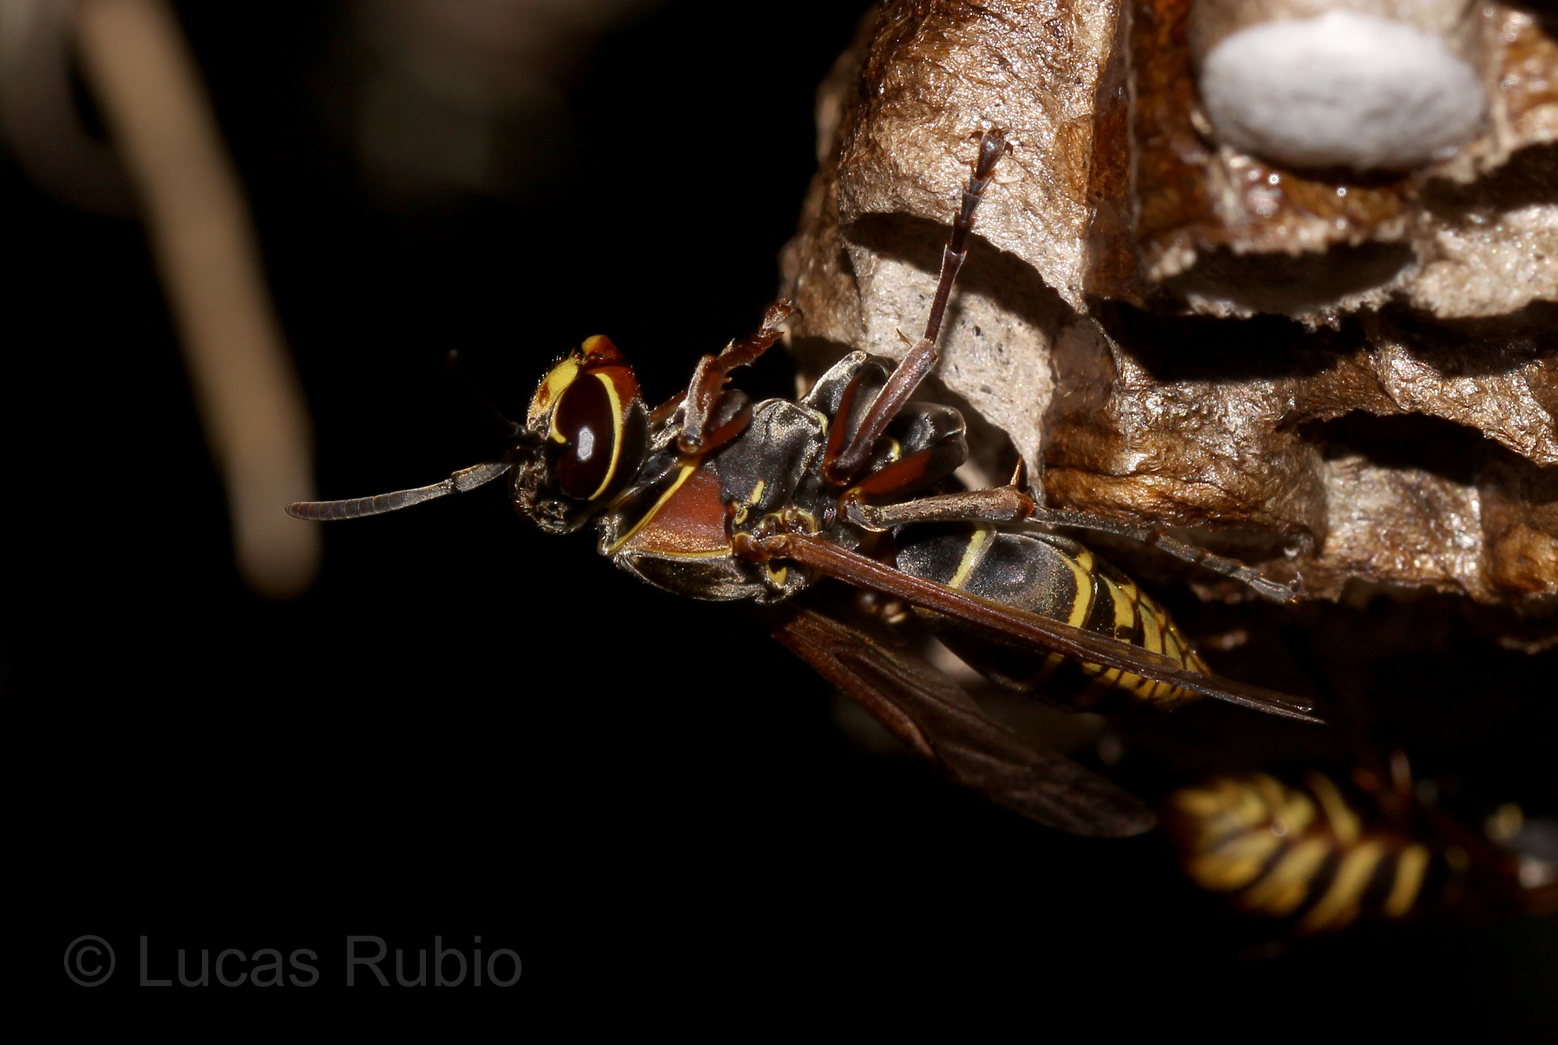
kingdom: Animalia
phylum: Arthropoda
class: Insecta
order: Hymenoptera
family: Eumenidae
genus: Polistes
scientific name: Polistes cinerascens
